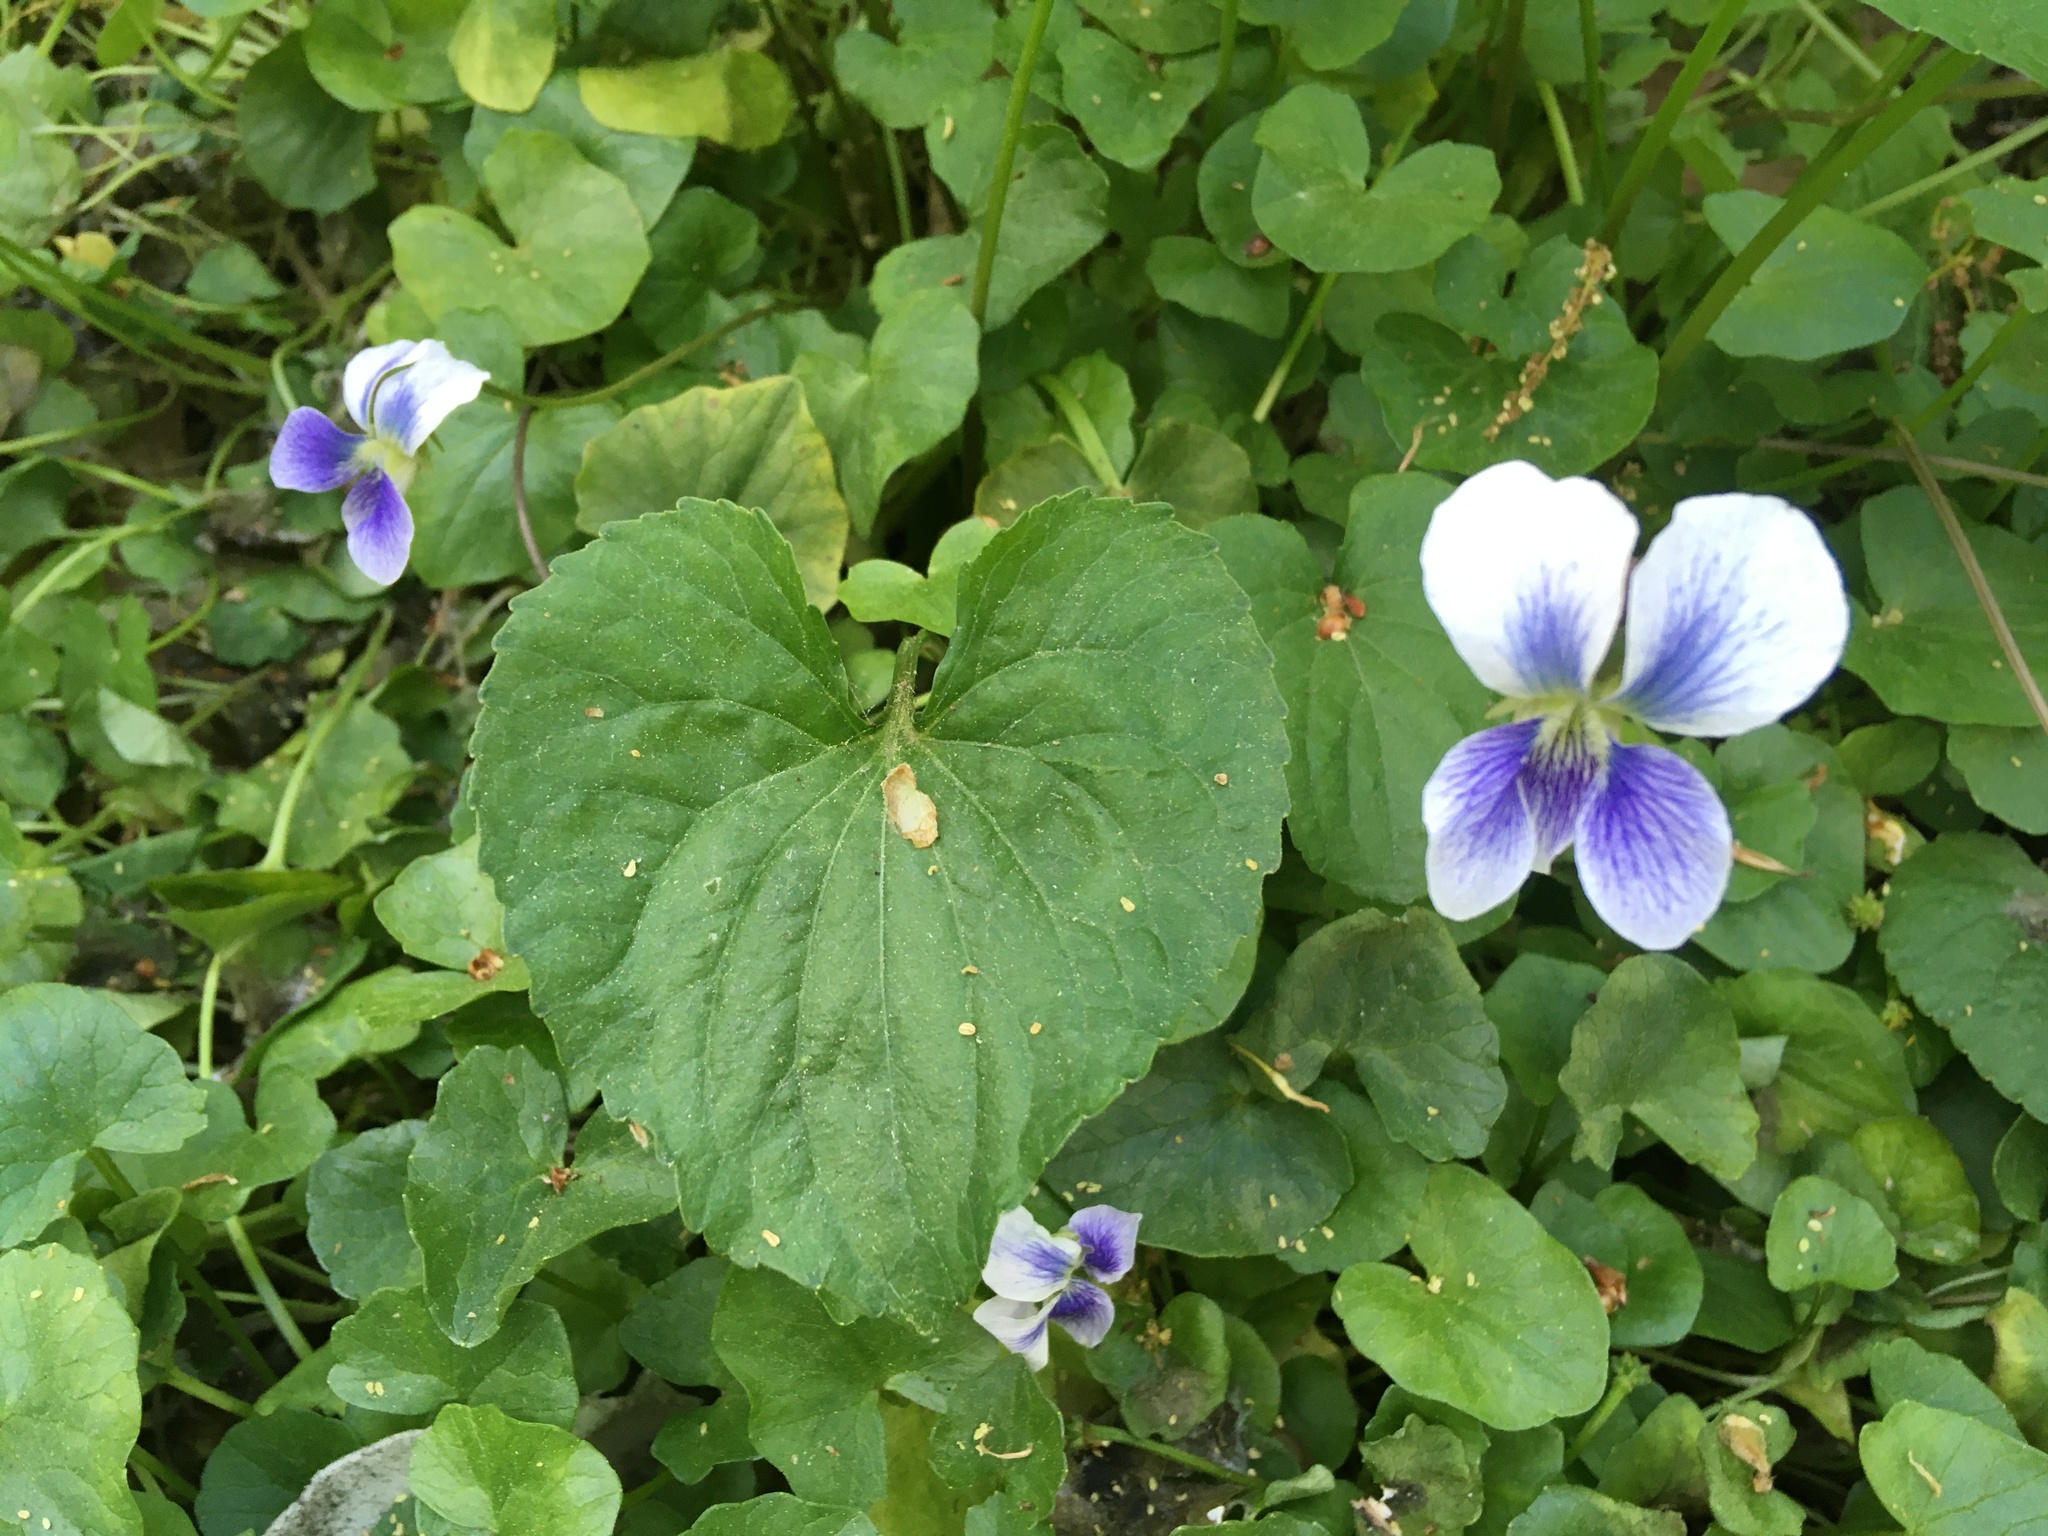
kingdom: Plantae
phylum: Tracheophyta
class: Magnoliopsida
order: Malpighiales
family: Violaceae
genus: Viola
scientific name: Viola sororia
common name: Dooryard violet
